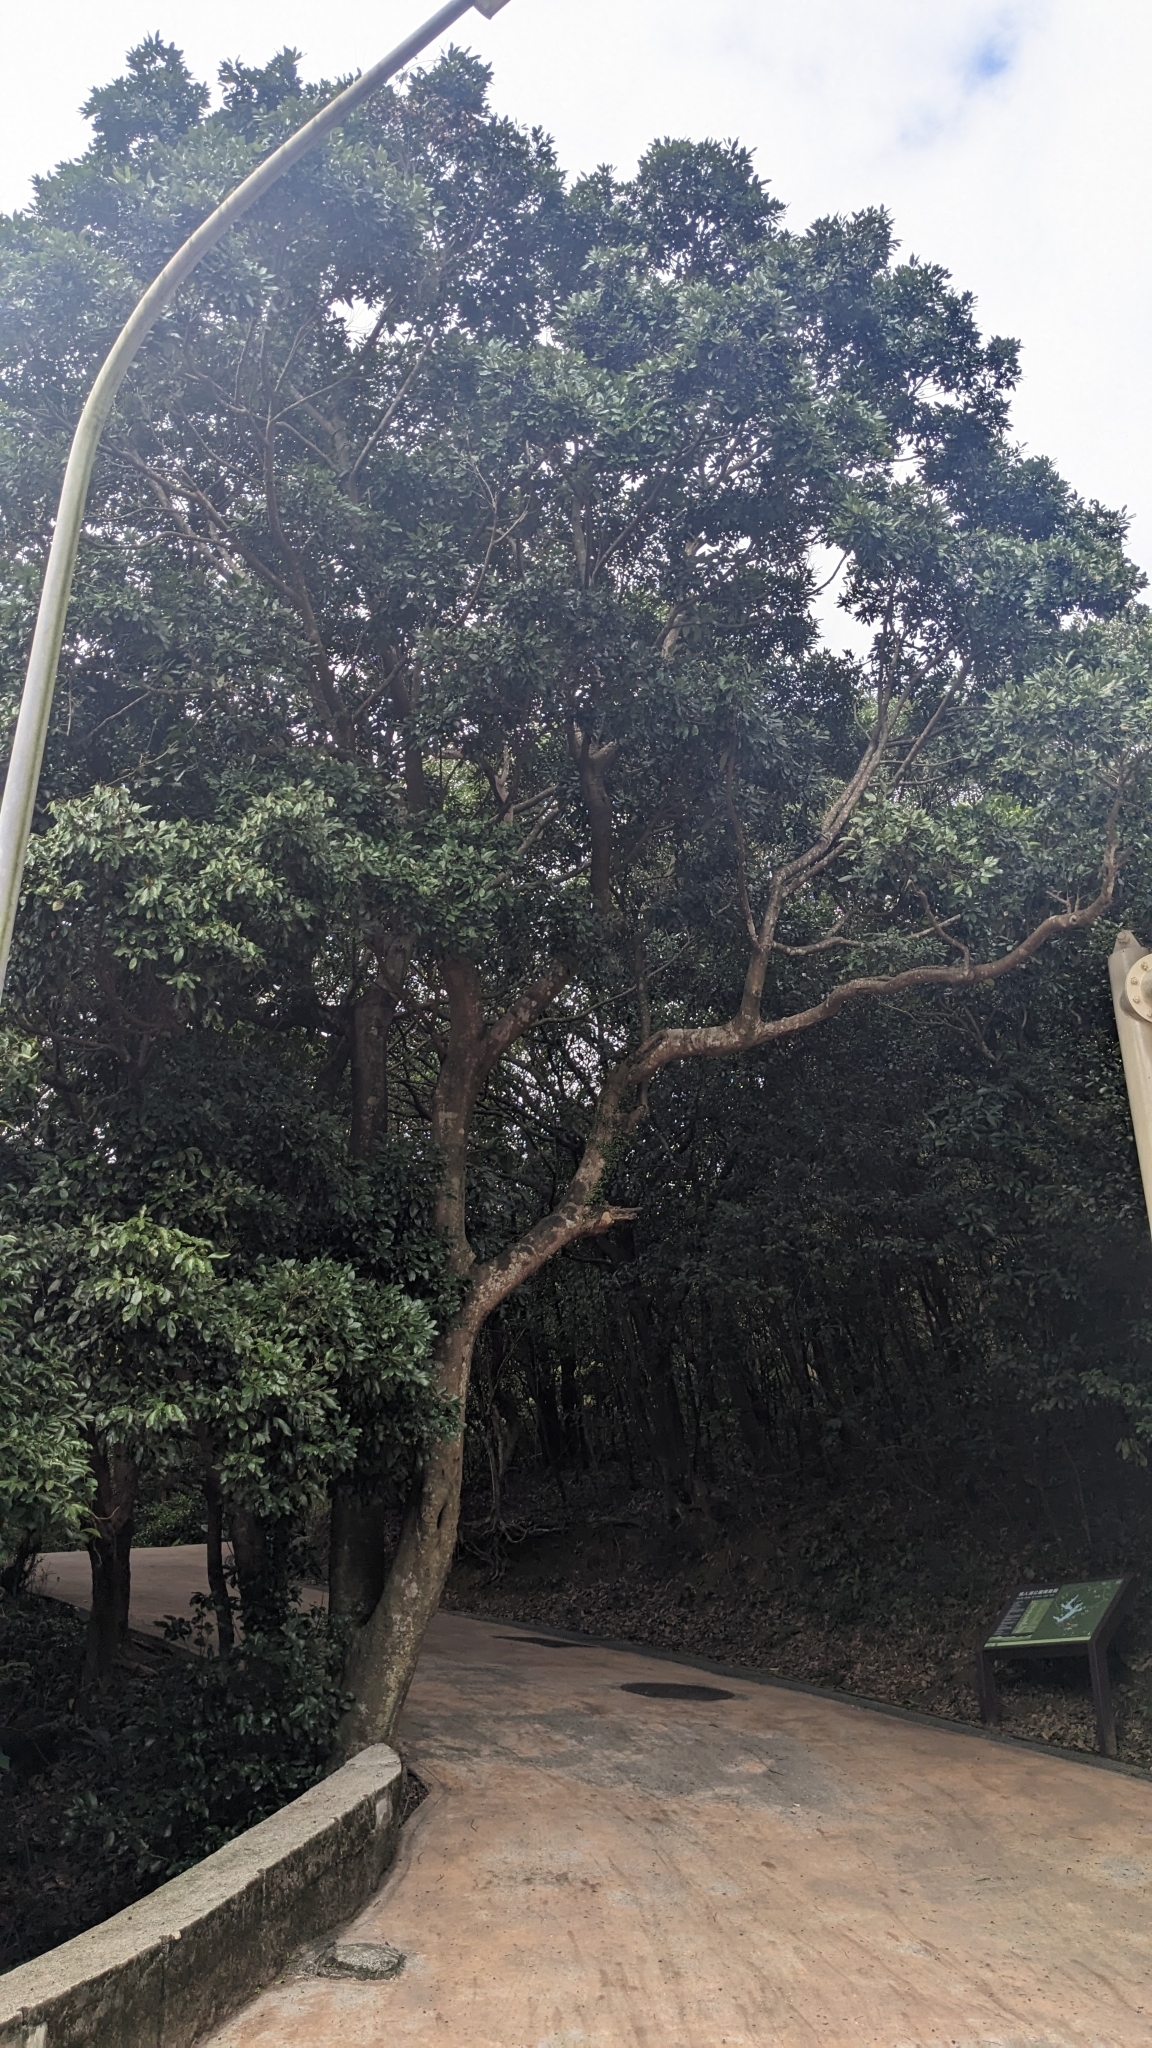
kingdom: Plantae
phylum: Tracheophyta
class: Magnoliopsida
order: Laurales
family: Lauraceae
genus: Cryptocarya
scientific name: Cryptocarya concinna
